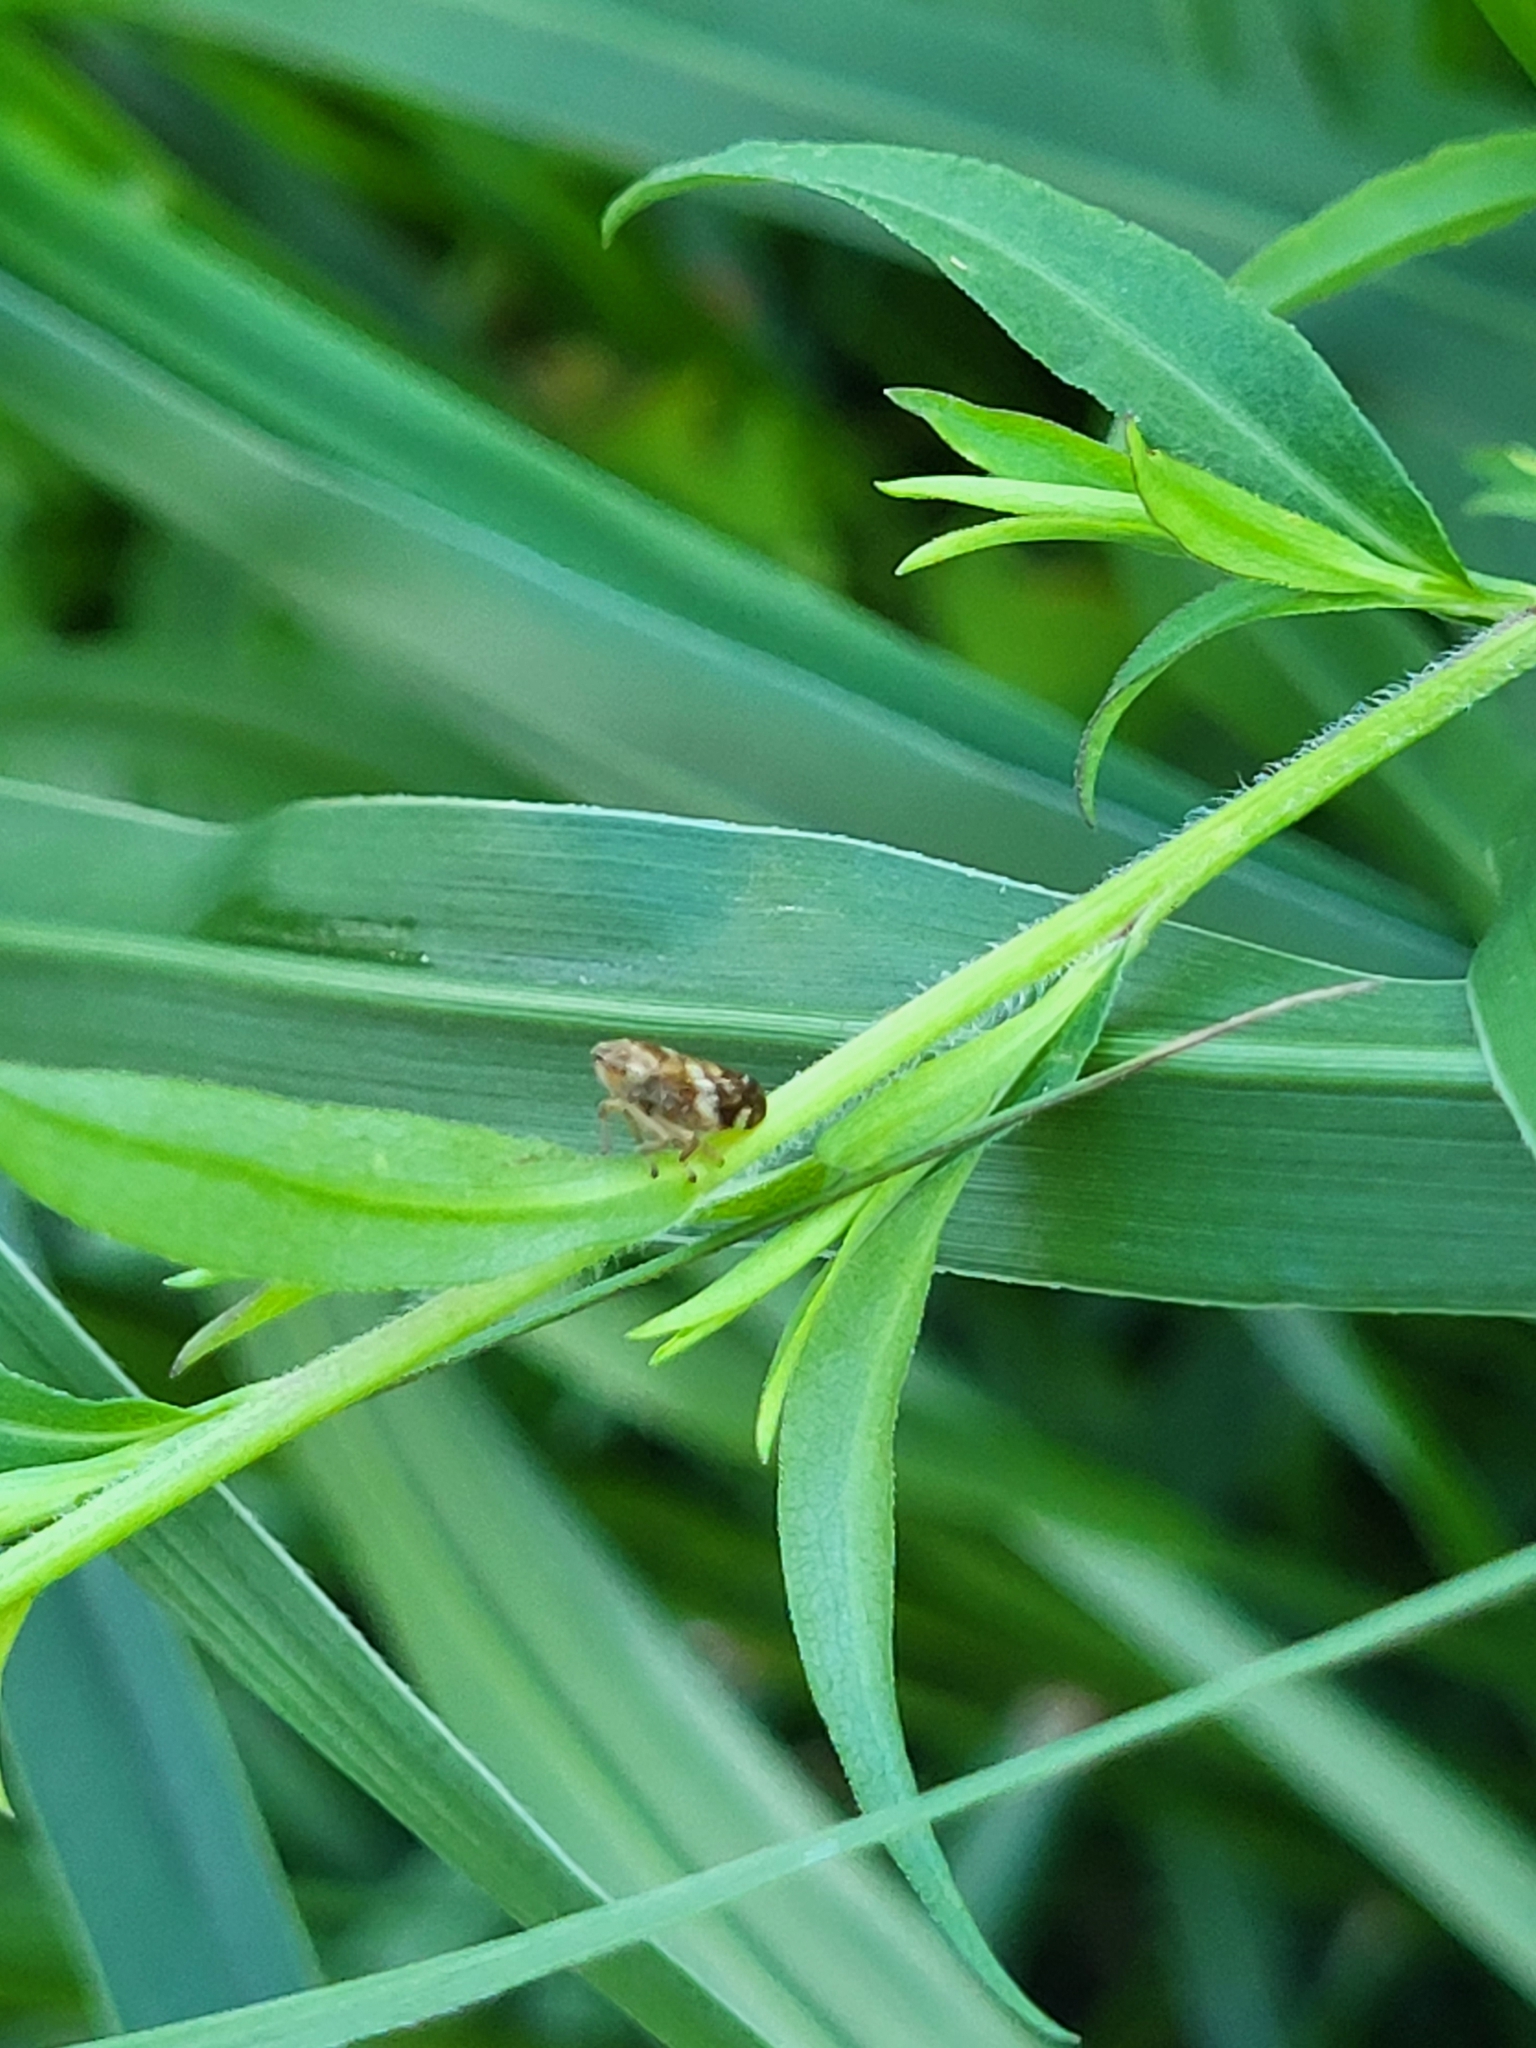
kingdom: Animalia
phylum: Arthropoda
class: Insecta
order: Hemiptera
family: Aphrophoridae
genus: Philaenus
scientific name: Philaenus spumarius
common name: Meadow spittlebug
